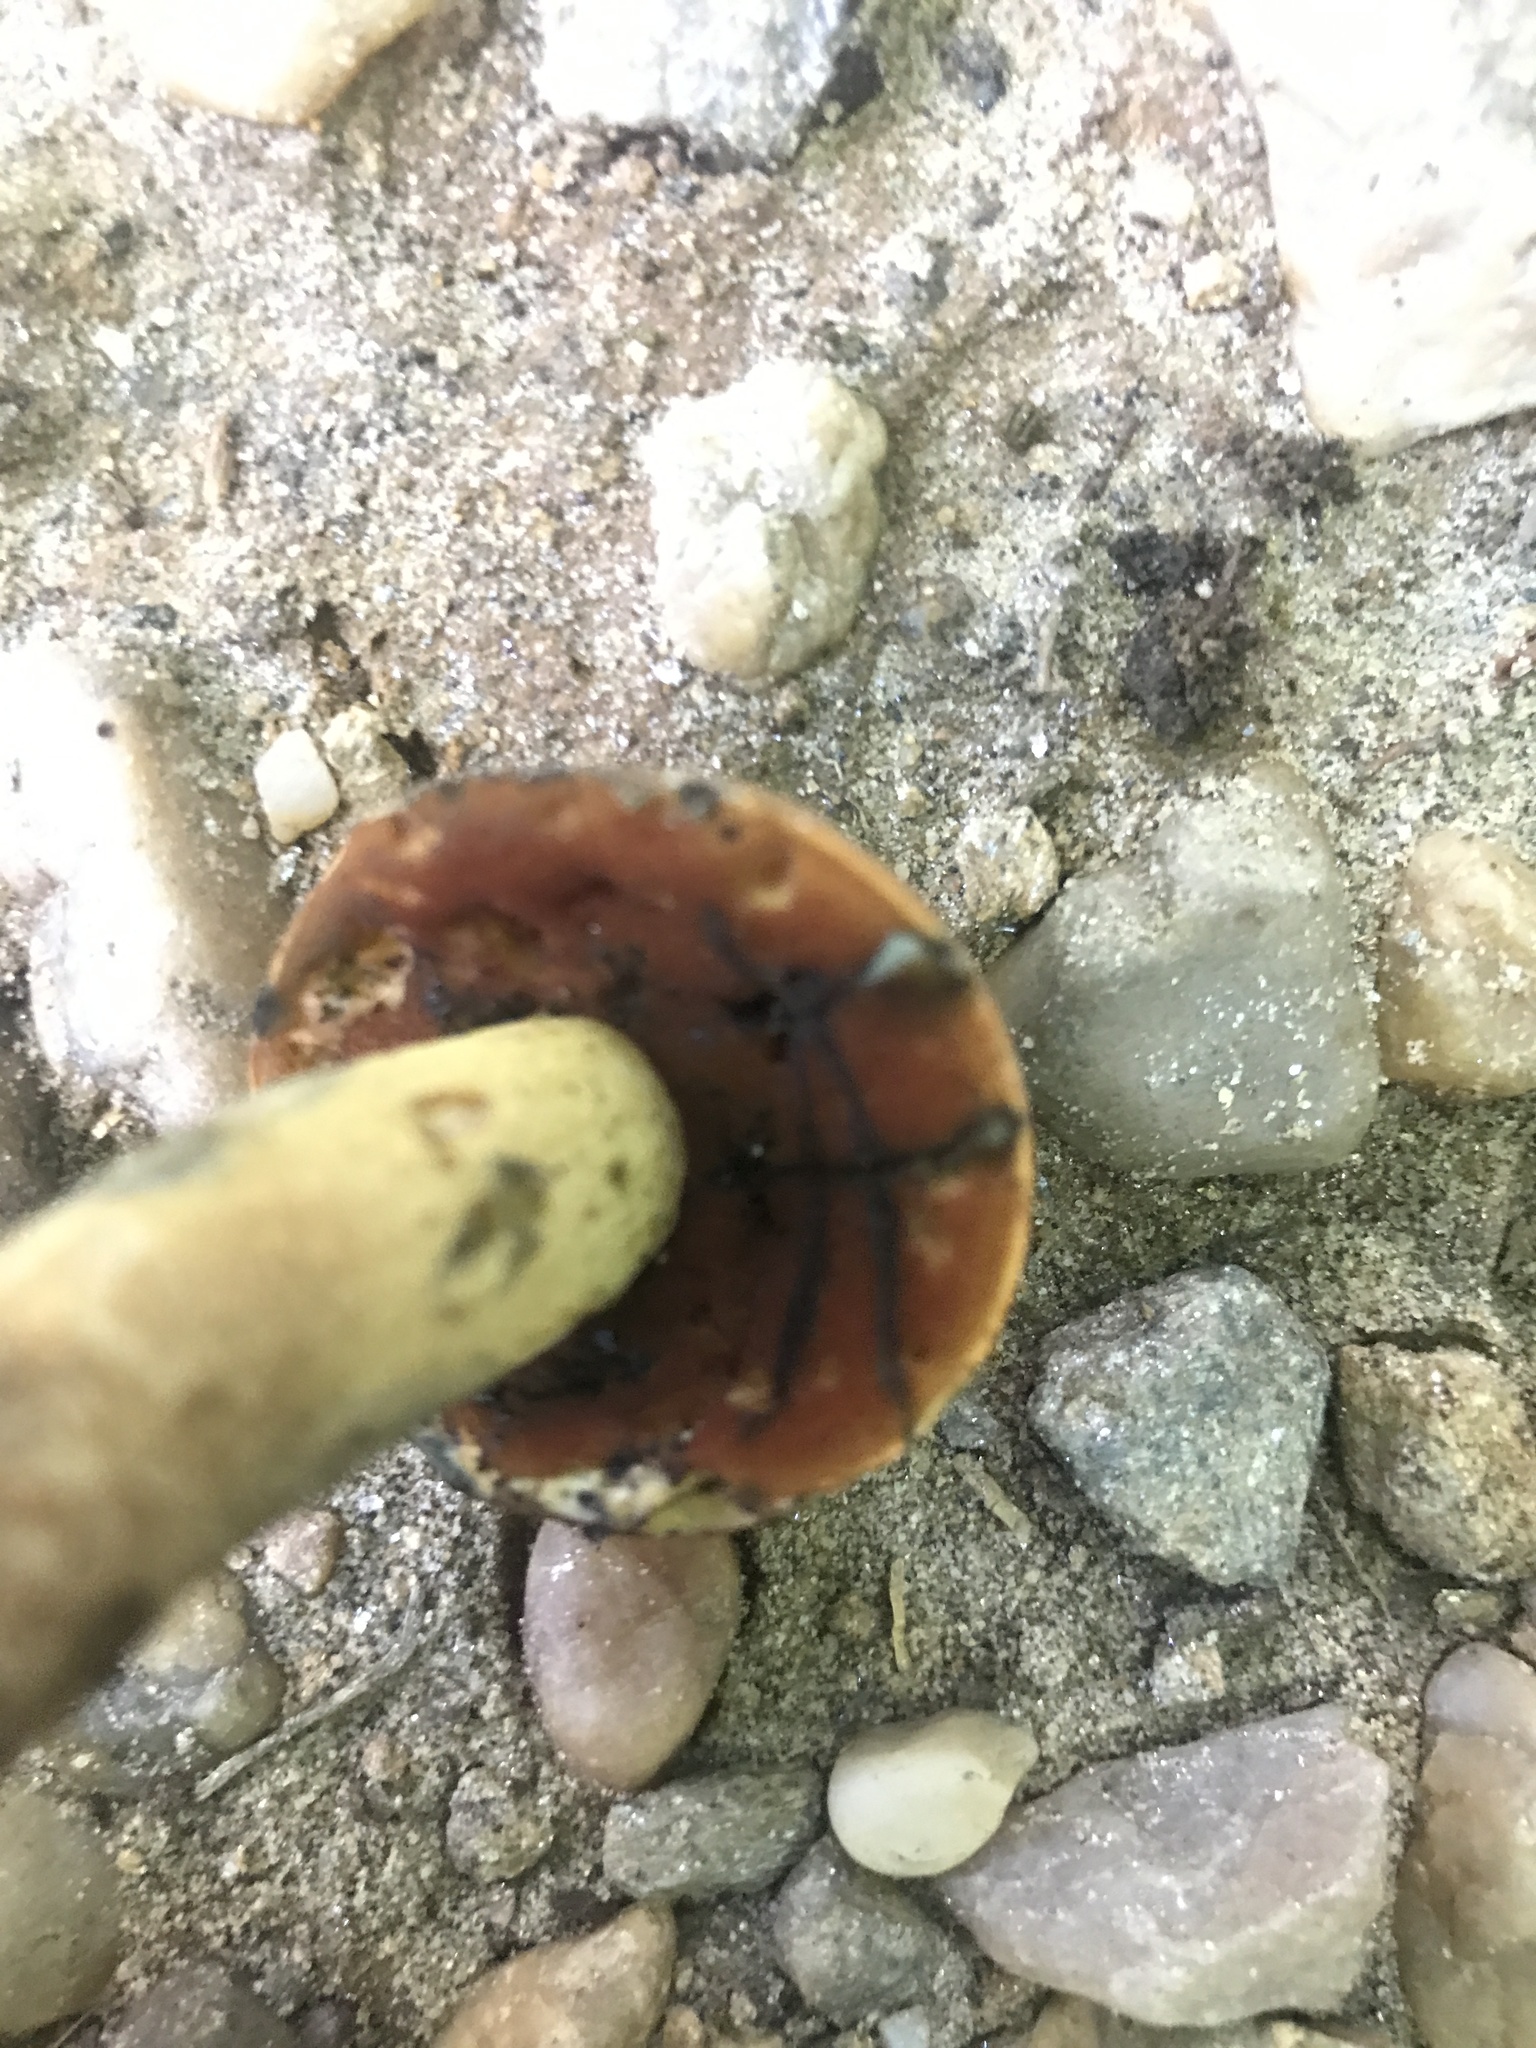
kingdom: Fungi
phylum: Basidiomycota
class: Agaricomycetes
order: Boletales
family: Boletaceae
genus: Boletus
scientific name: Boletus vermiculosoides
